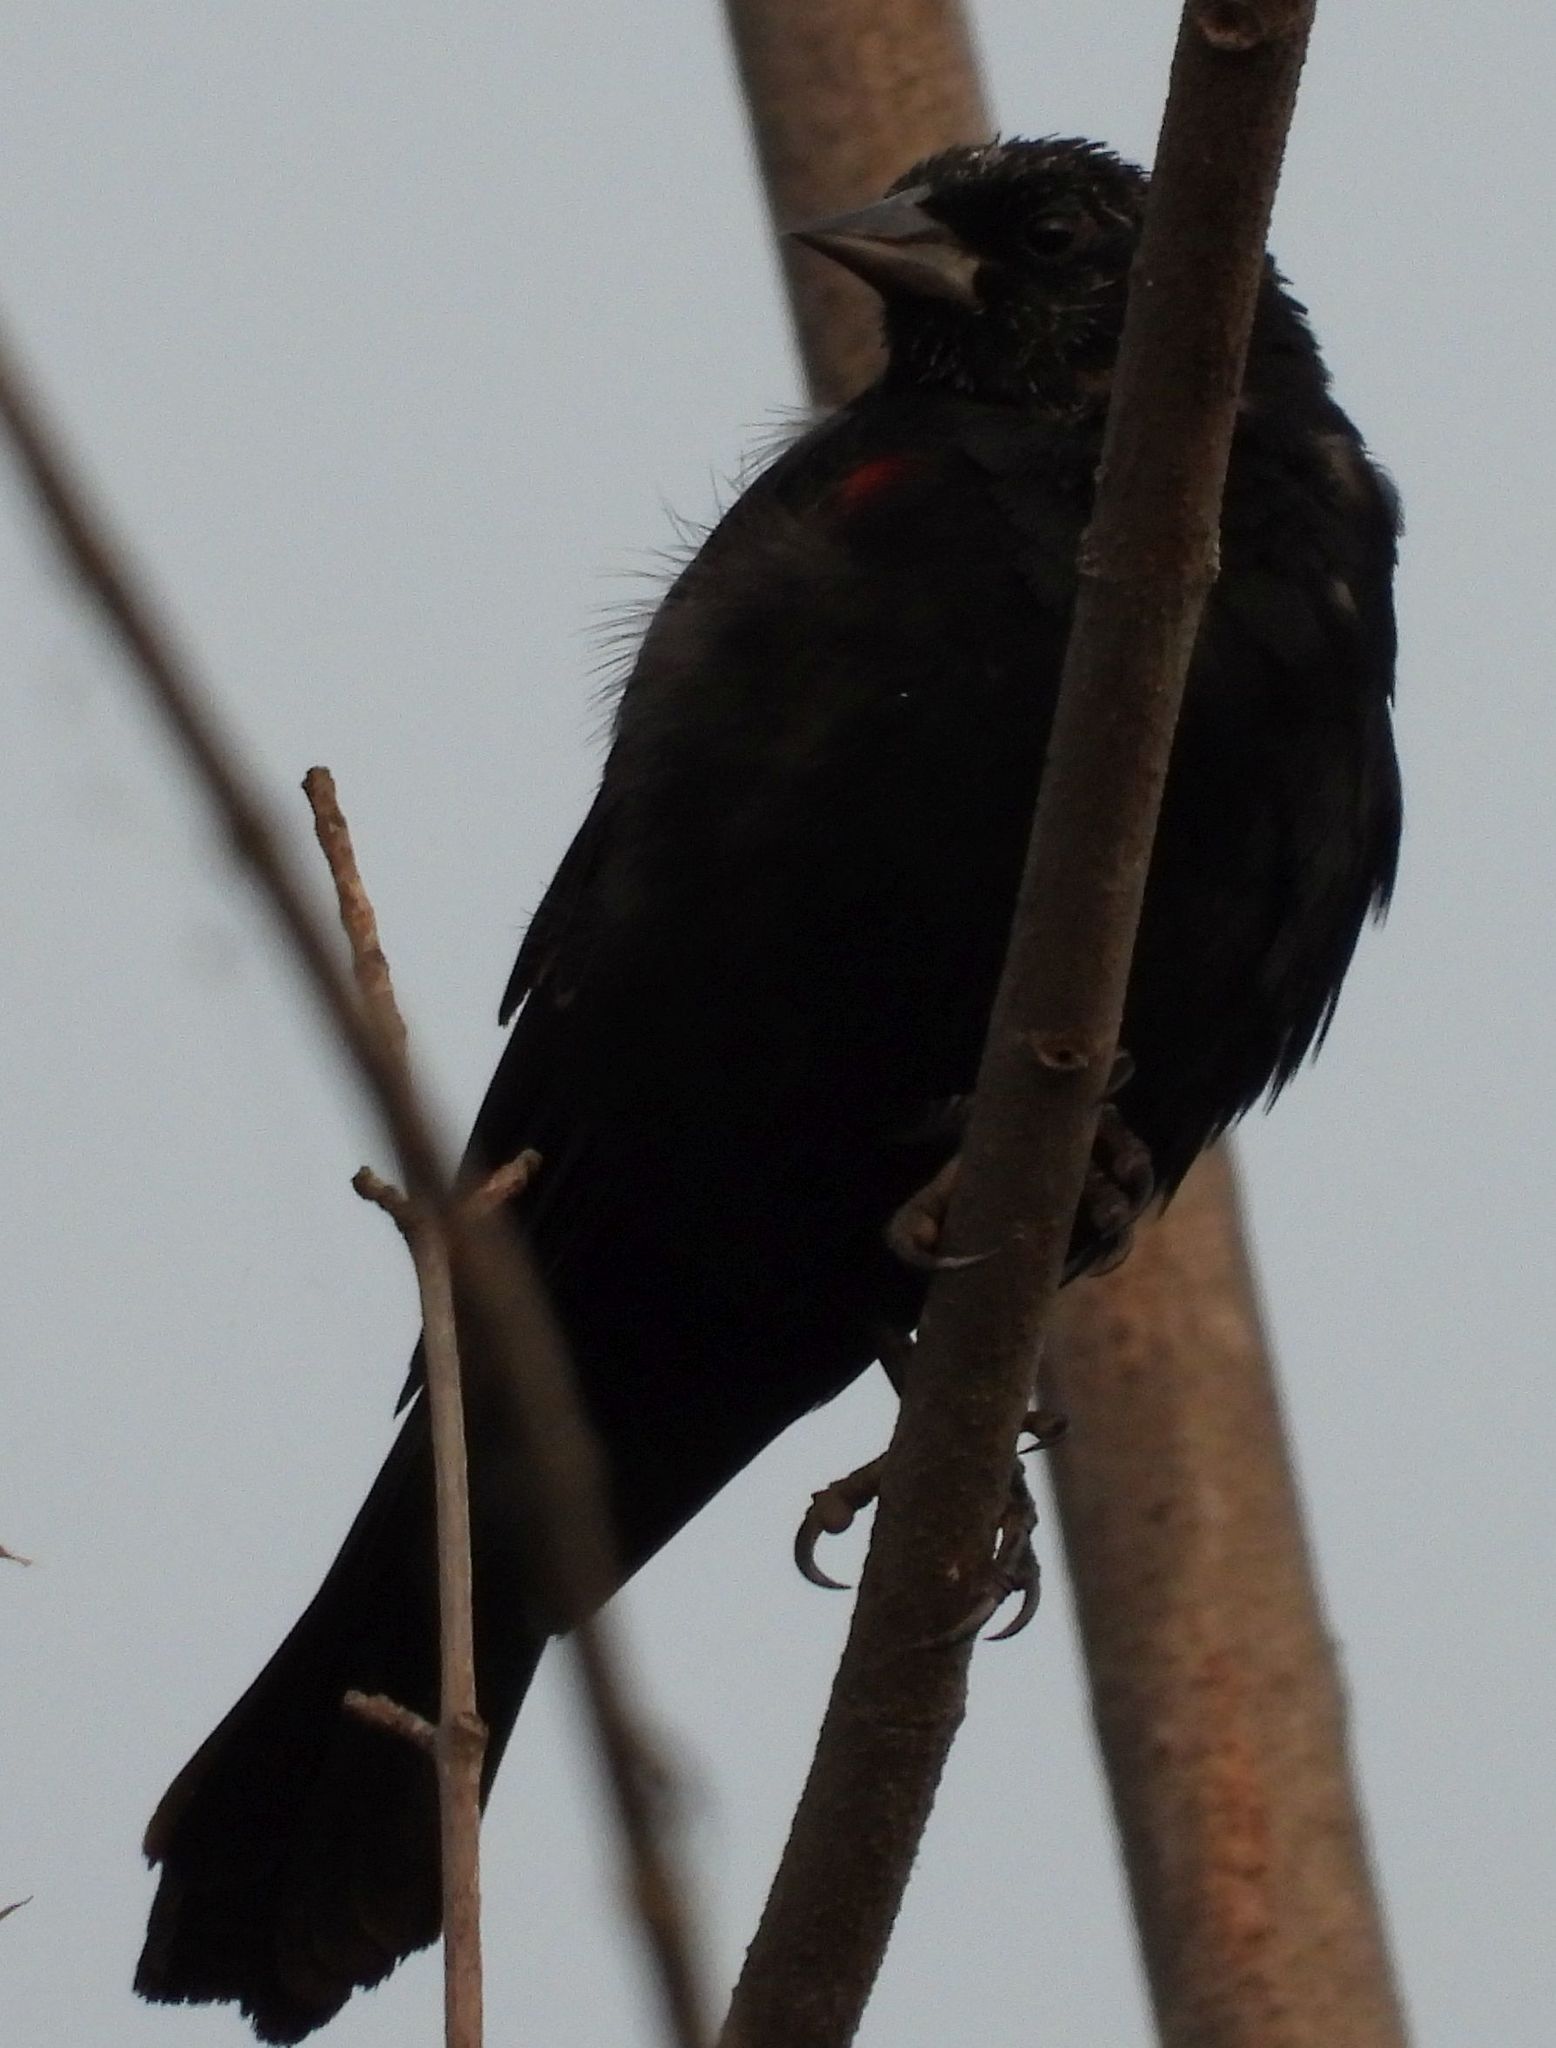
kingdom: Animalia
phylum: Chordata
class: Aves
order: Passeriformes
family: Icteridae
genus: Agelaius
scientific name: Agelaius phoeniceus
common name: Red-winged blackbird
